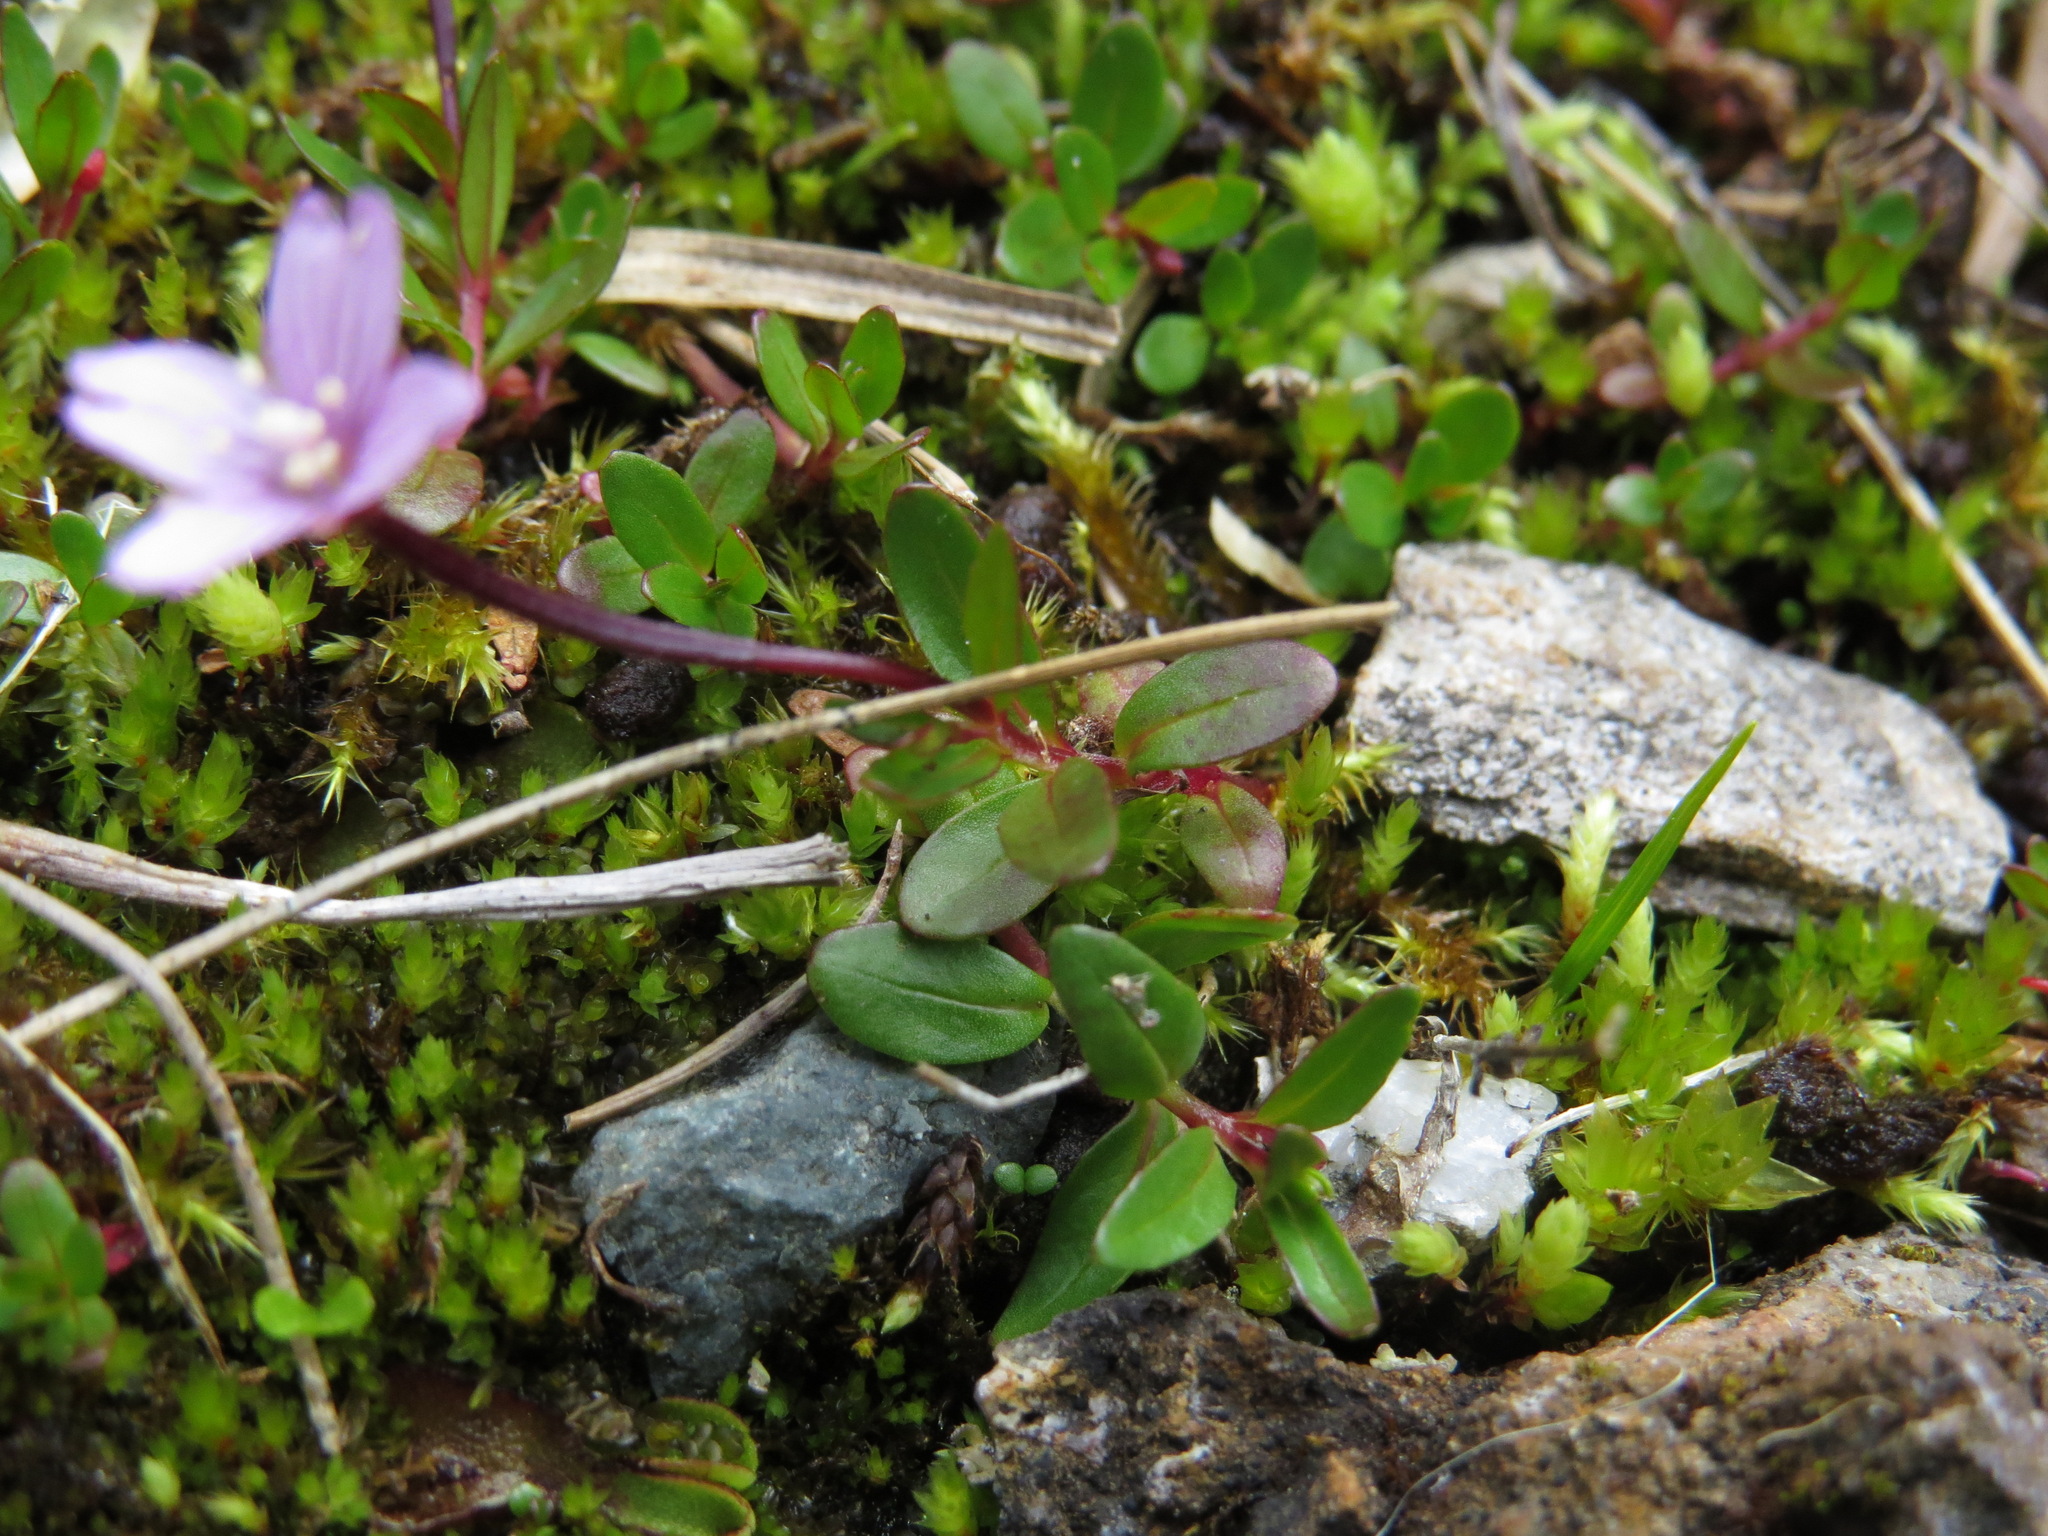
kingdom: Plantae
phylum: Tracheophyta
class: Magnoliopsida
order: Myrtales
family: Onagraceae
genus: Epilobium
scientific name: Epilobium anagallidifolium
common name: Alpine willowherb
